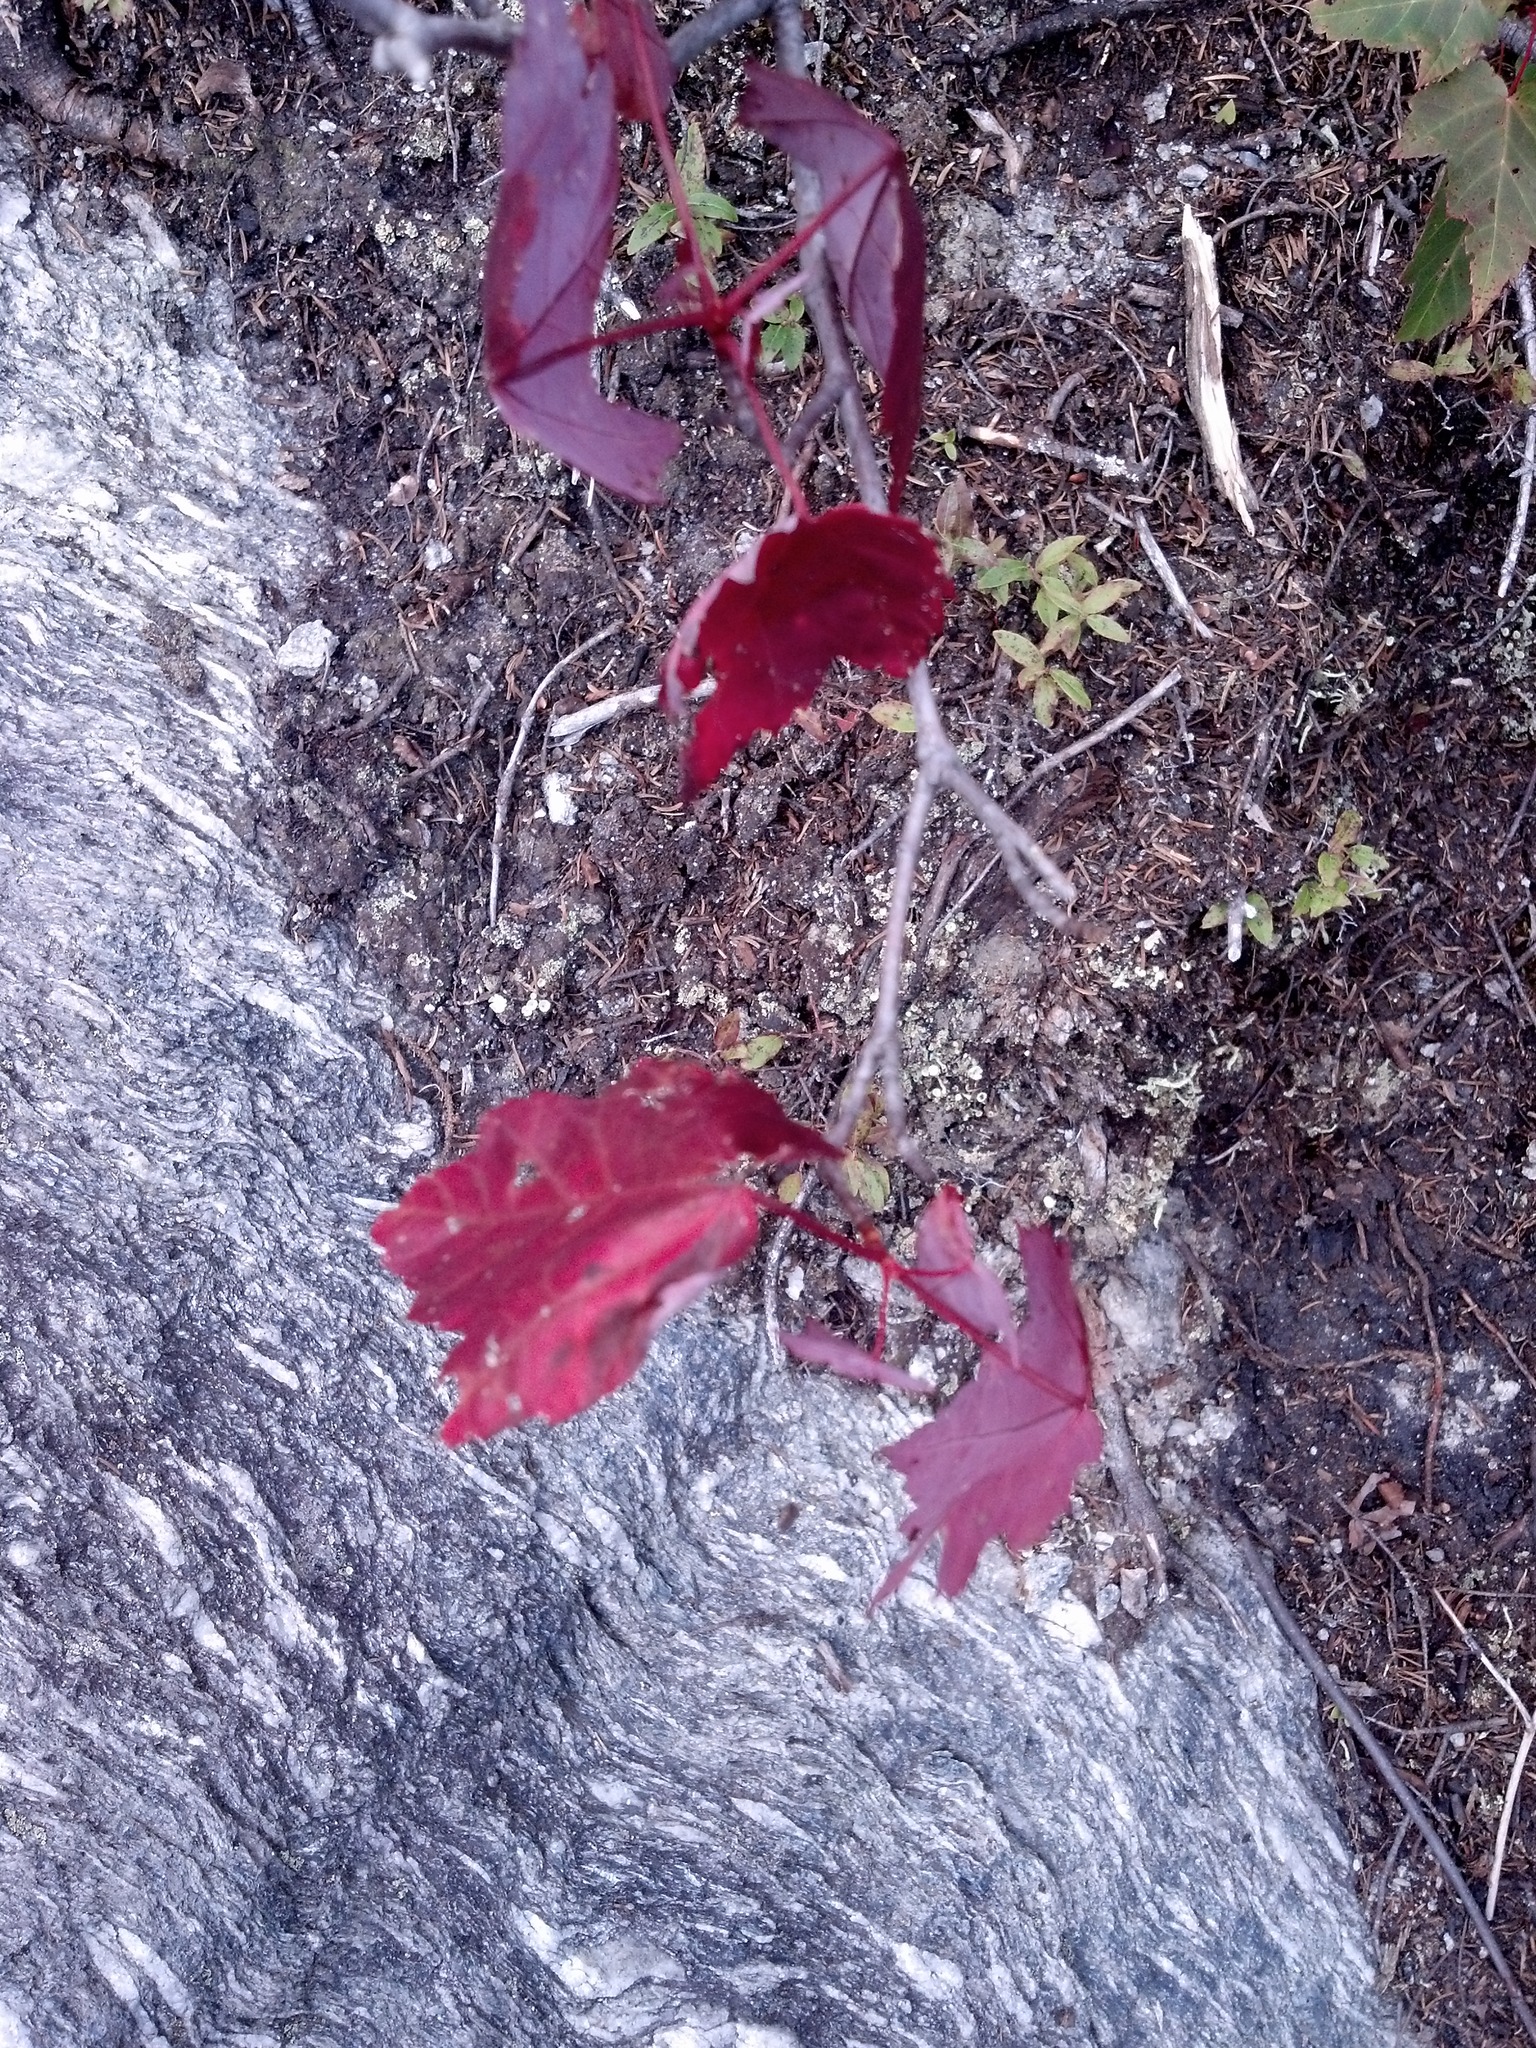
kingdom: Plantae
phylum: Tracheophyta
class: Magnoliopsida
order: Sapindales
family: Sapindaceae
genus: Acer
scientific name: Acer rubrum
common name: Red maple
